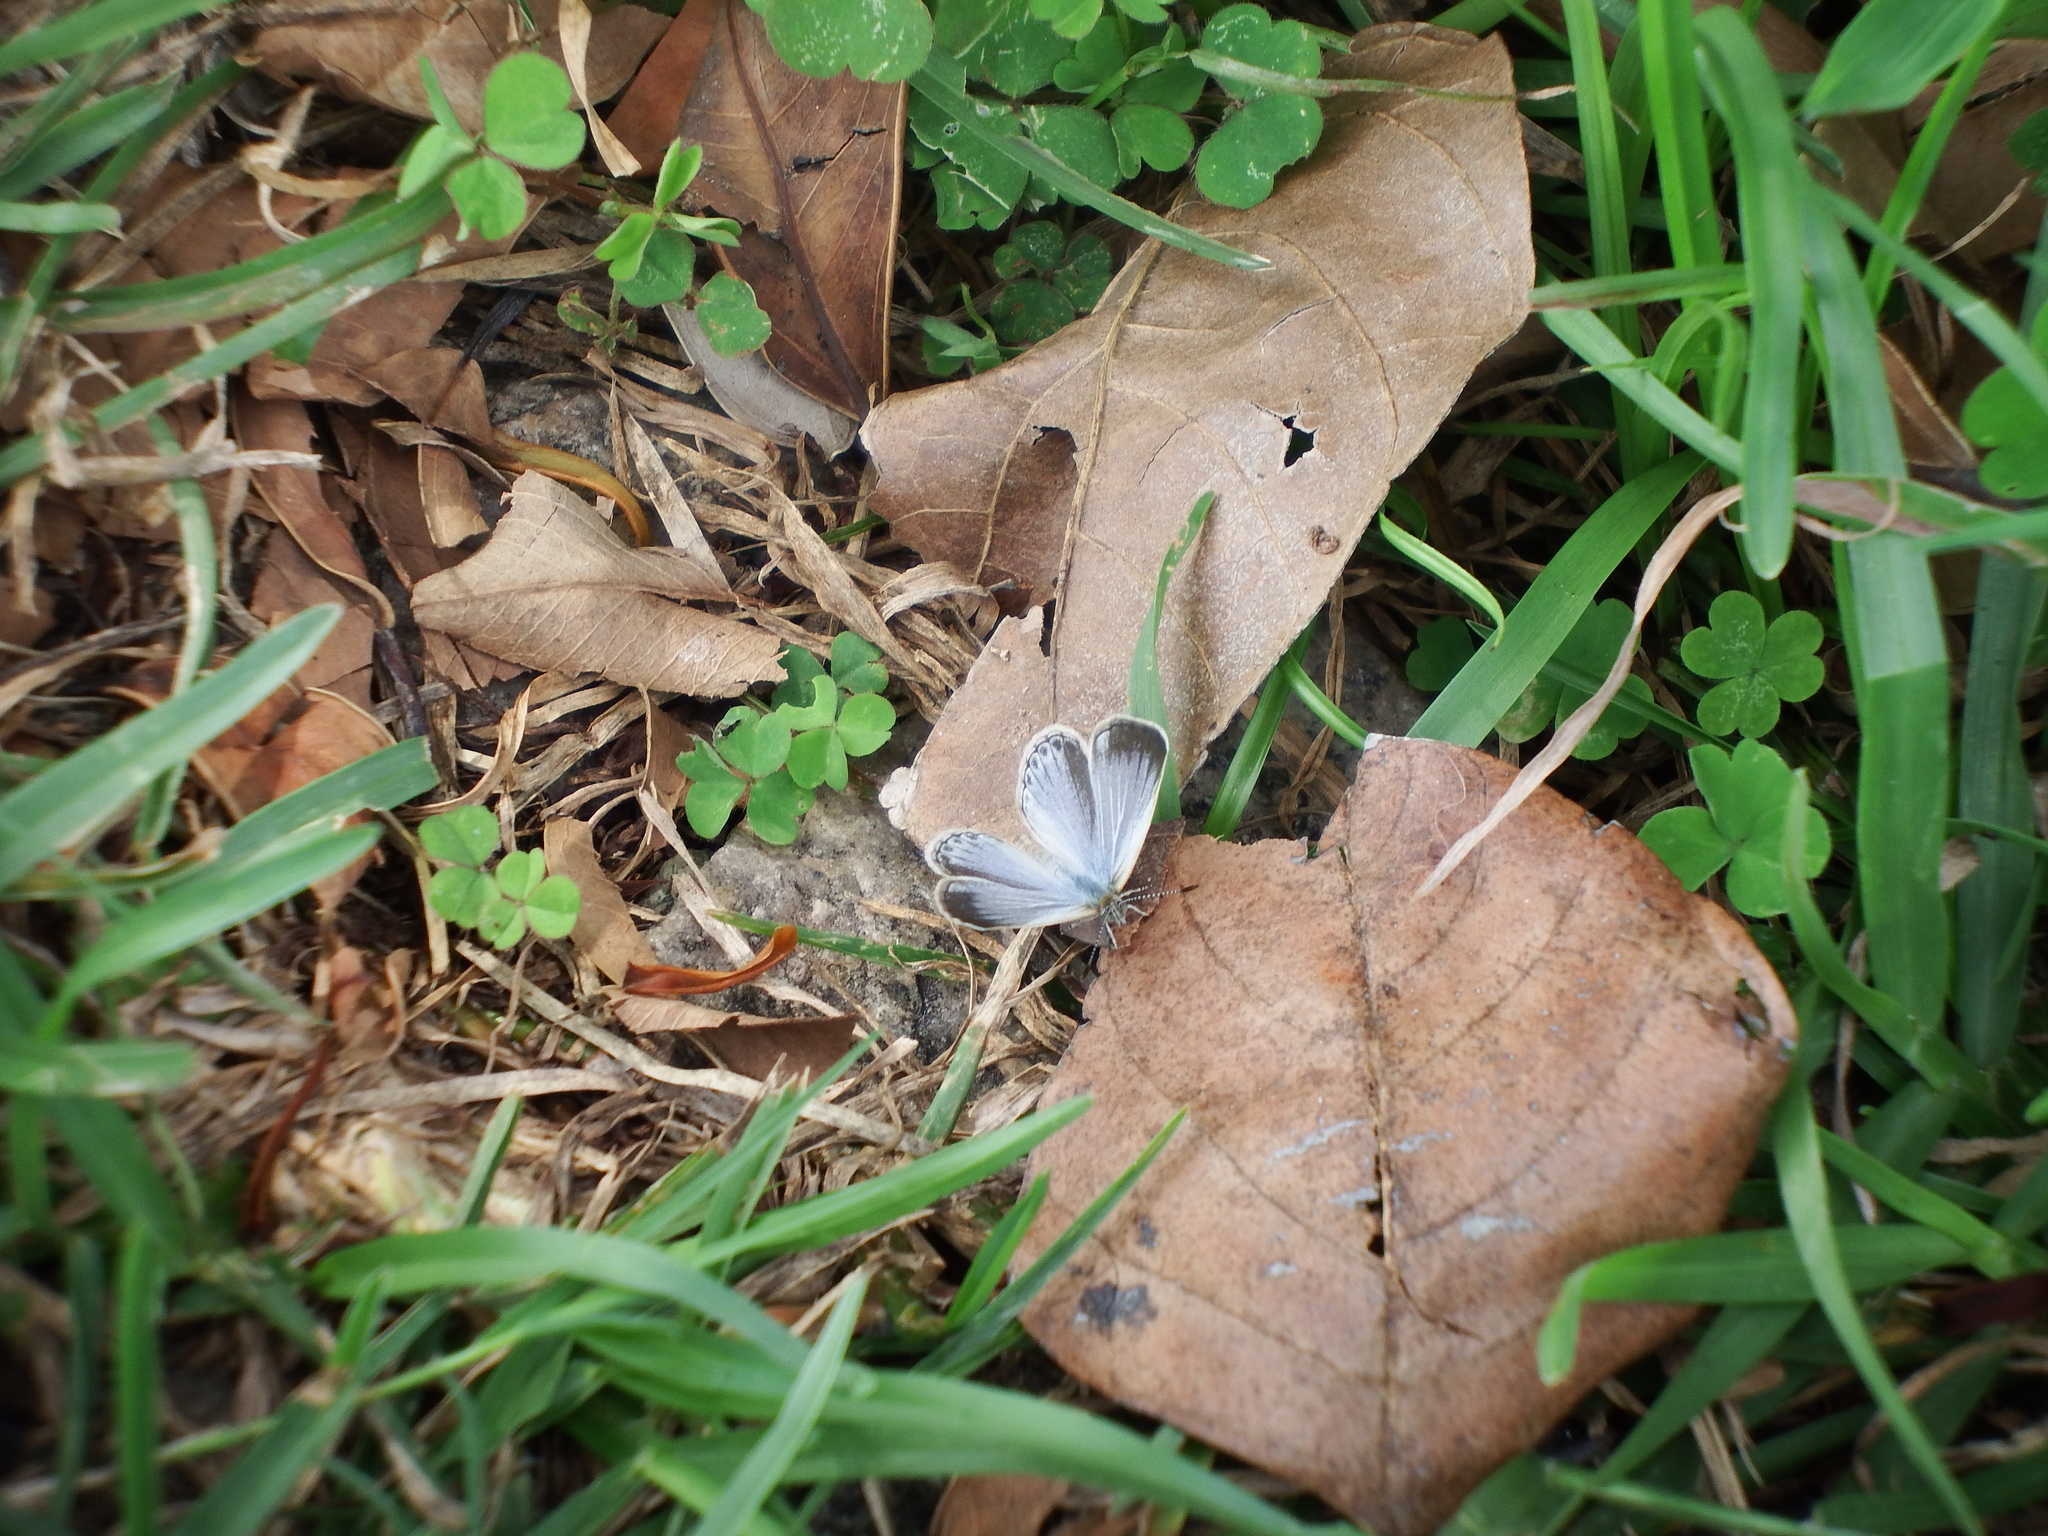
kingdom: Animalia
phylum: Arthropoda
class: Insecta
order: Lepidoptera
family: Lycaenidae
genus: Pseudozizeeria
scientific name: Pseudozizeeria maha
